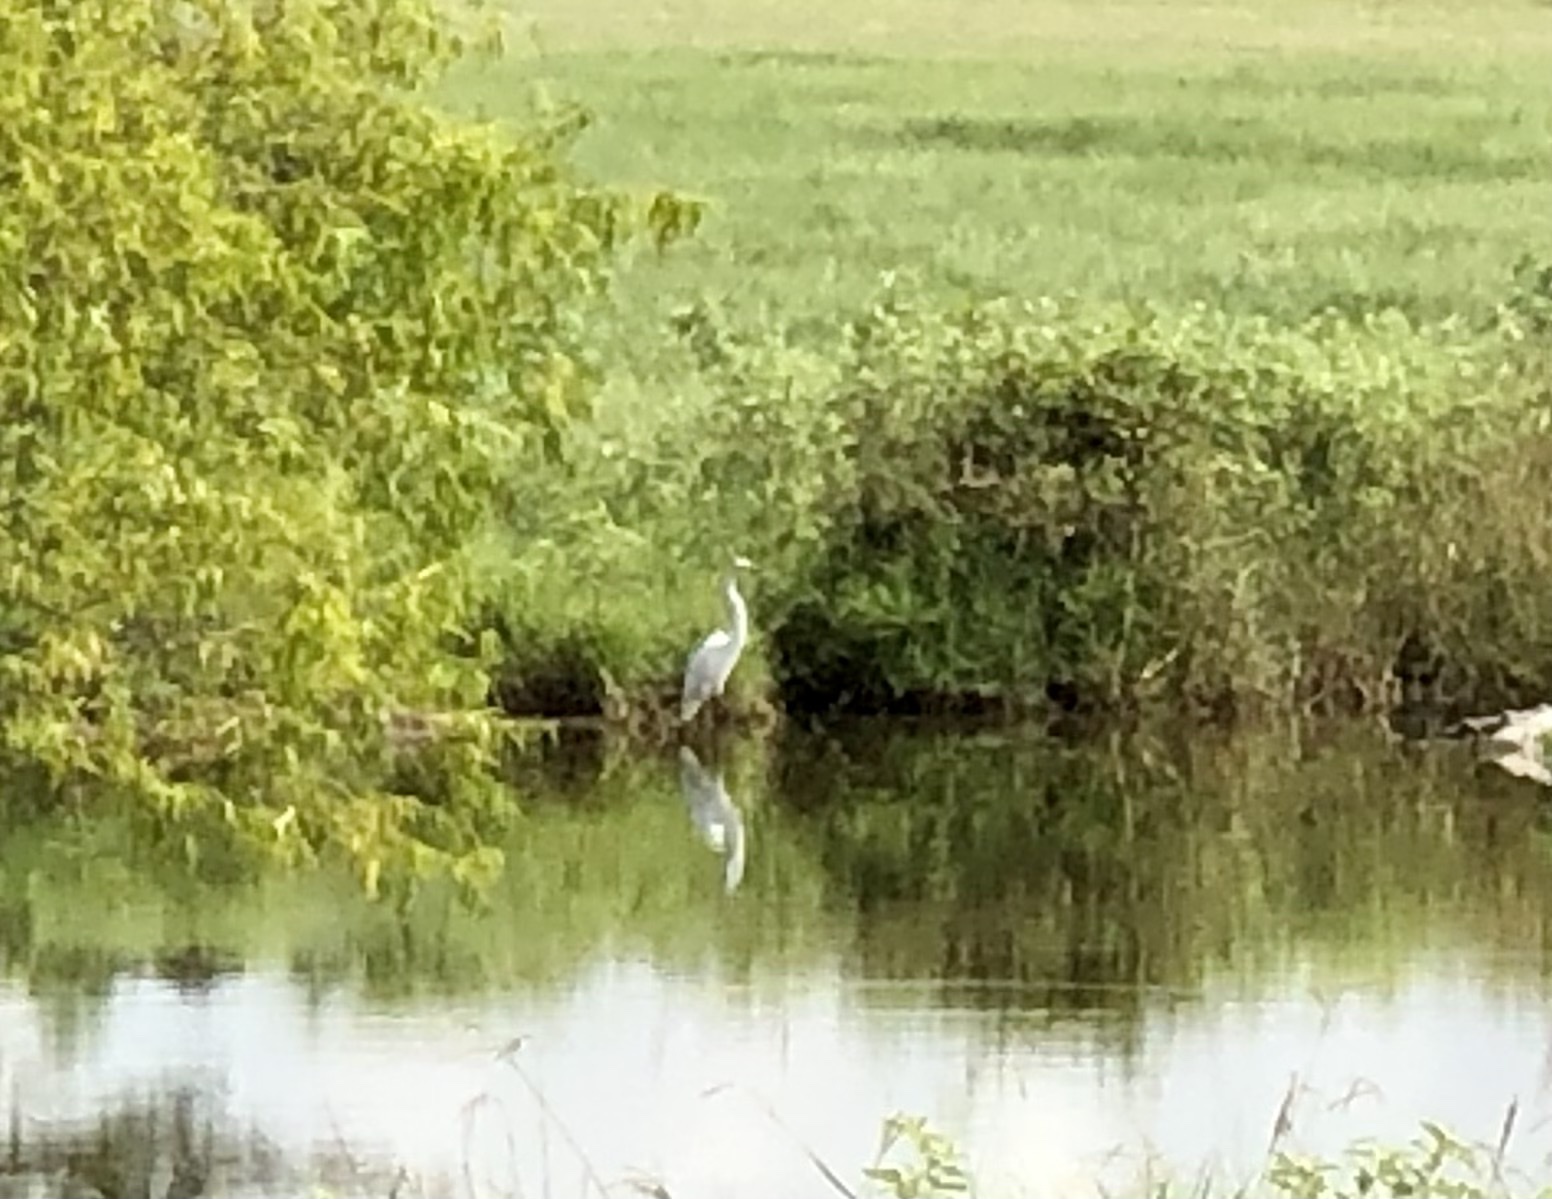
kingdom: Animalia
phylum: Chordata
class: Aves
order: Pelecaniformes
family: Ardeidae
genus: Ardea
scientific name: Ardea alba
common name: Great egret
